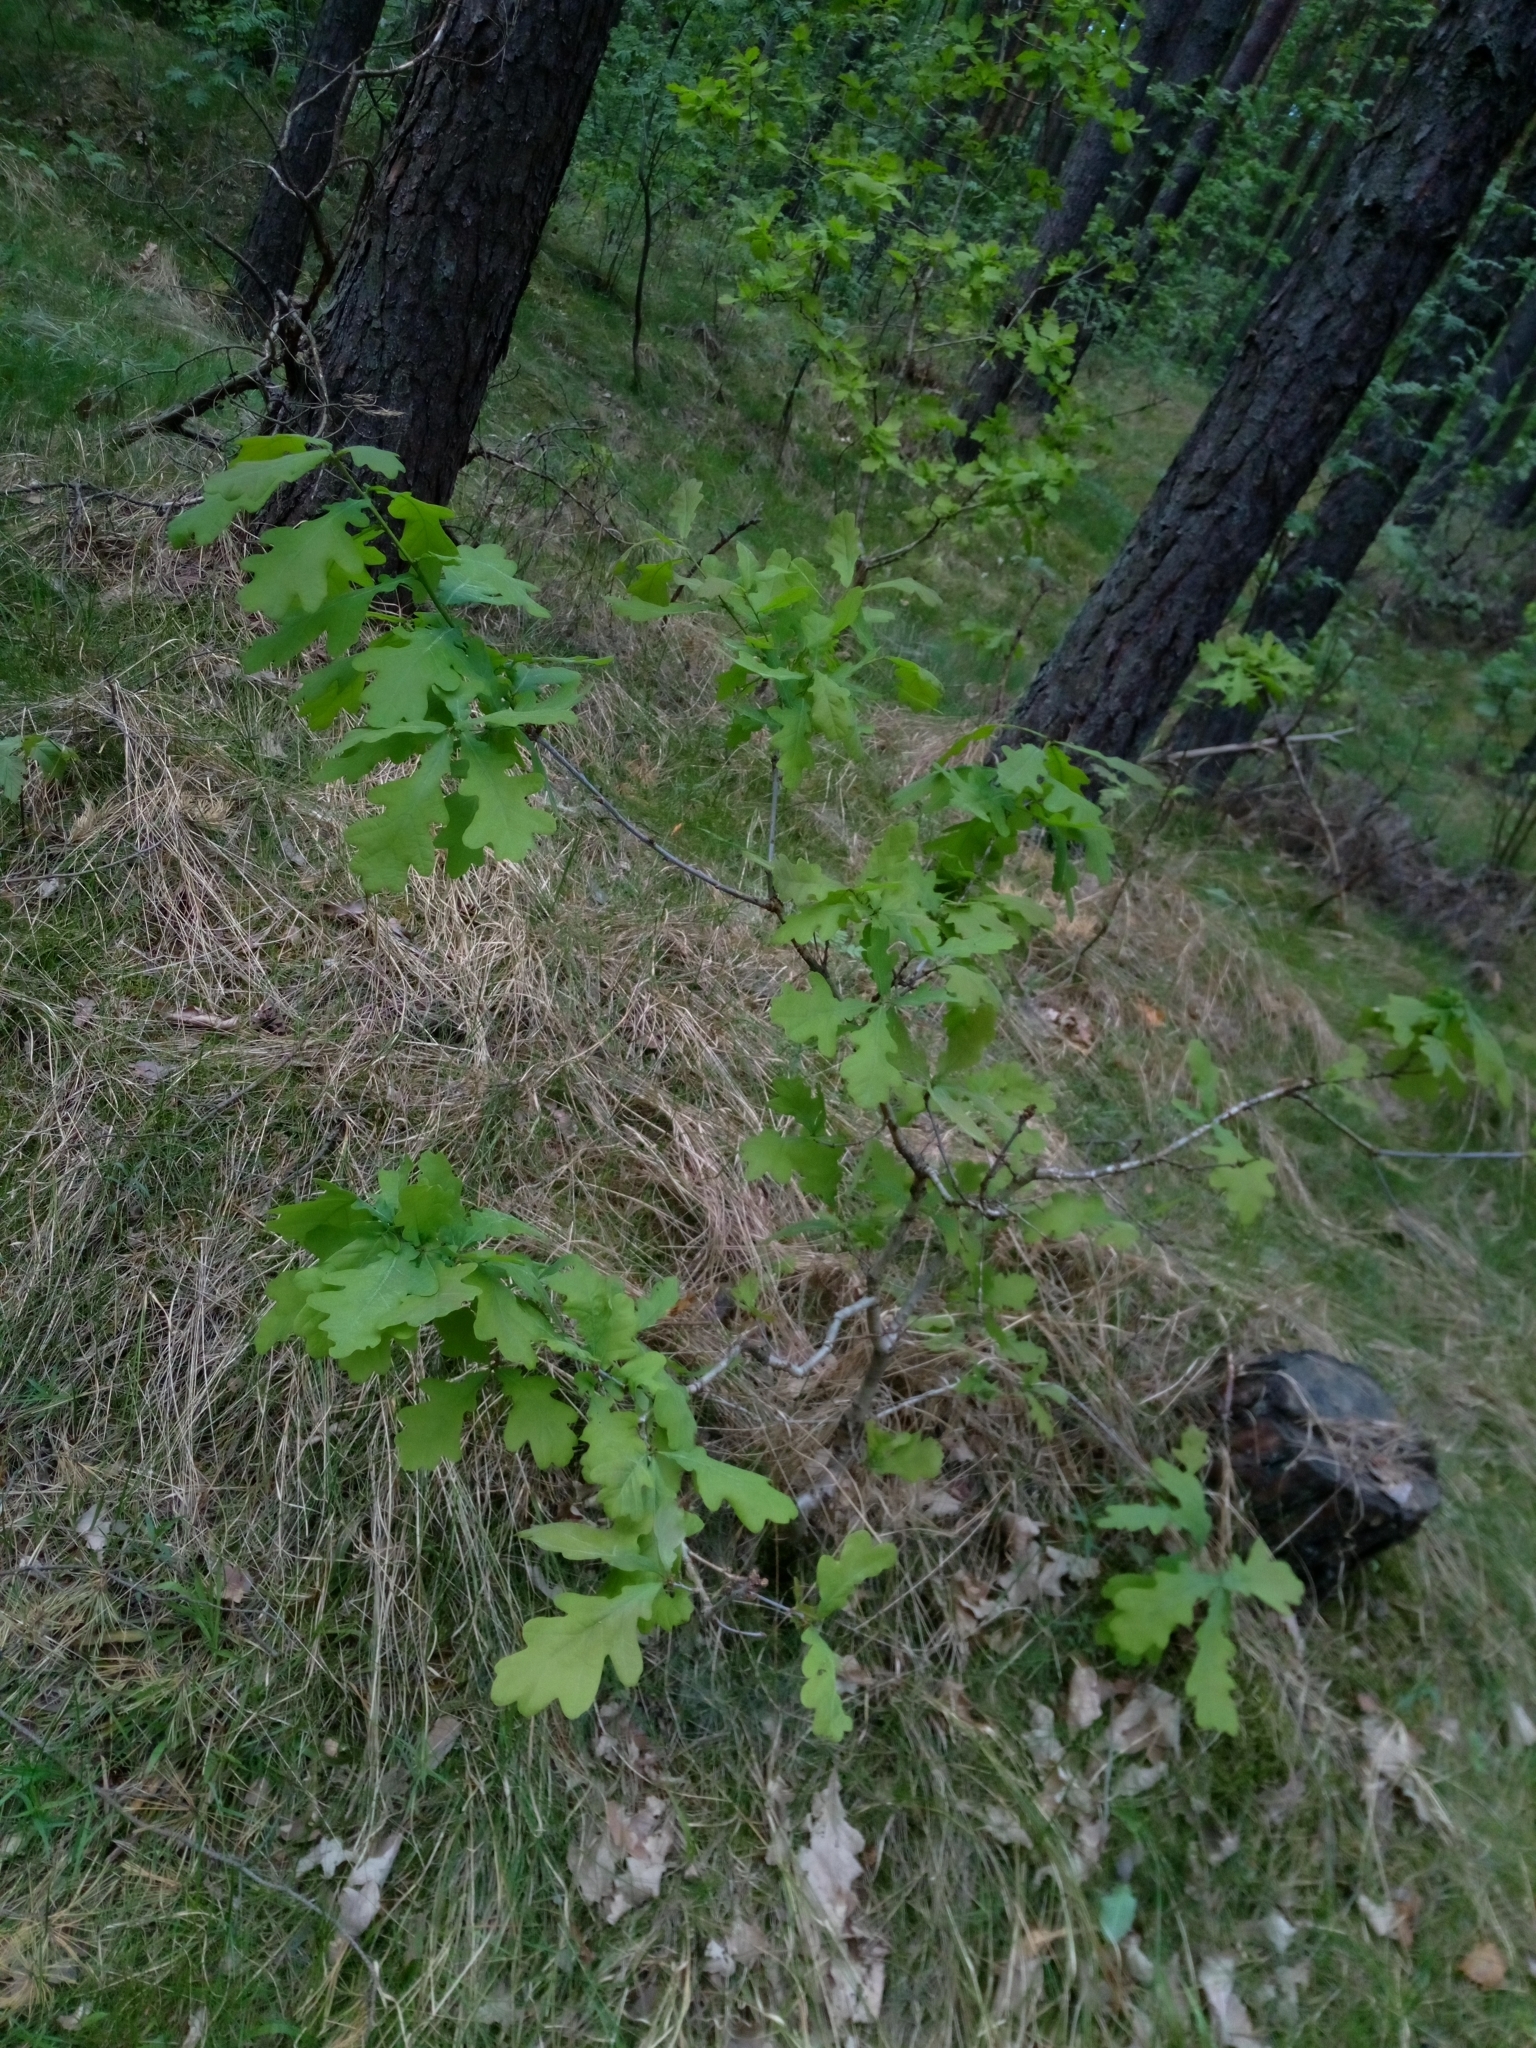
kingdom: Plantae
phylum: Tracheophyta
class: Magnoliopsida
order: Fagales
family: Fagaceae
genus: Quercus
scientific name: Quercus robur
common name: Pedunculate oak
